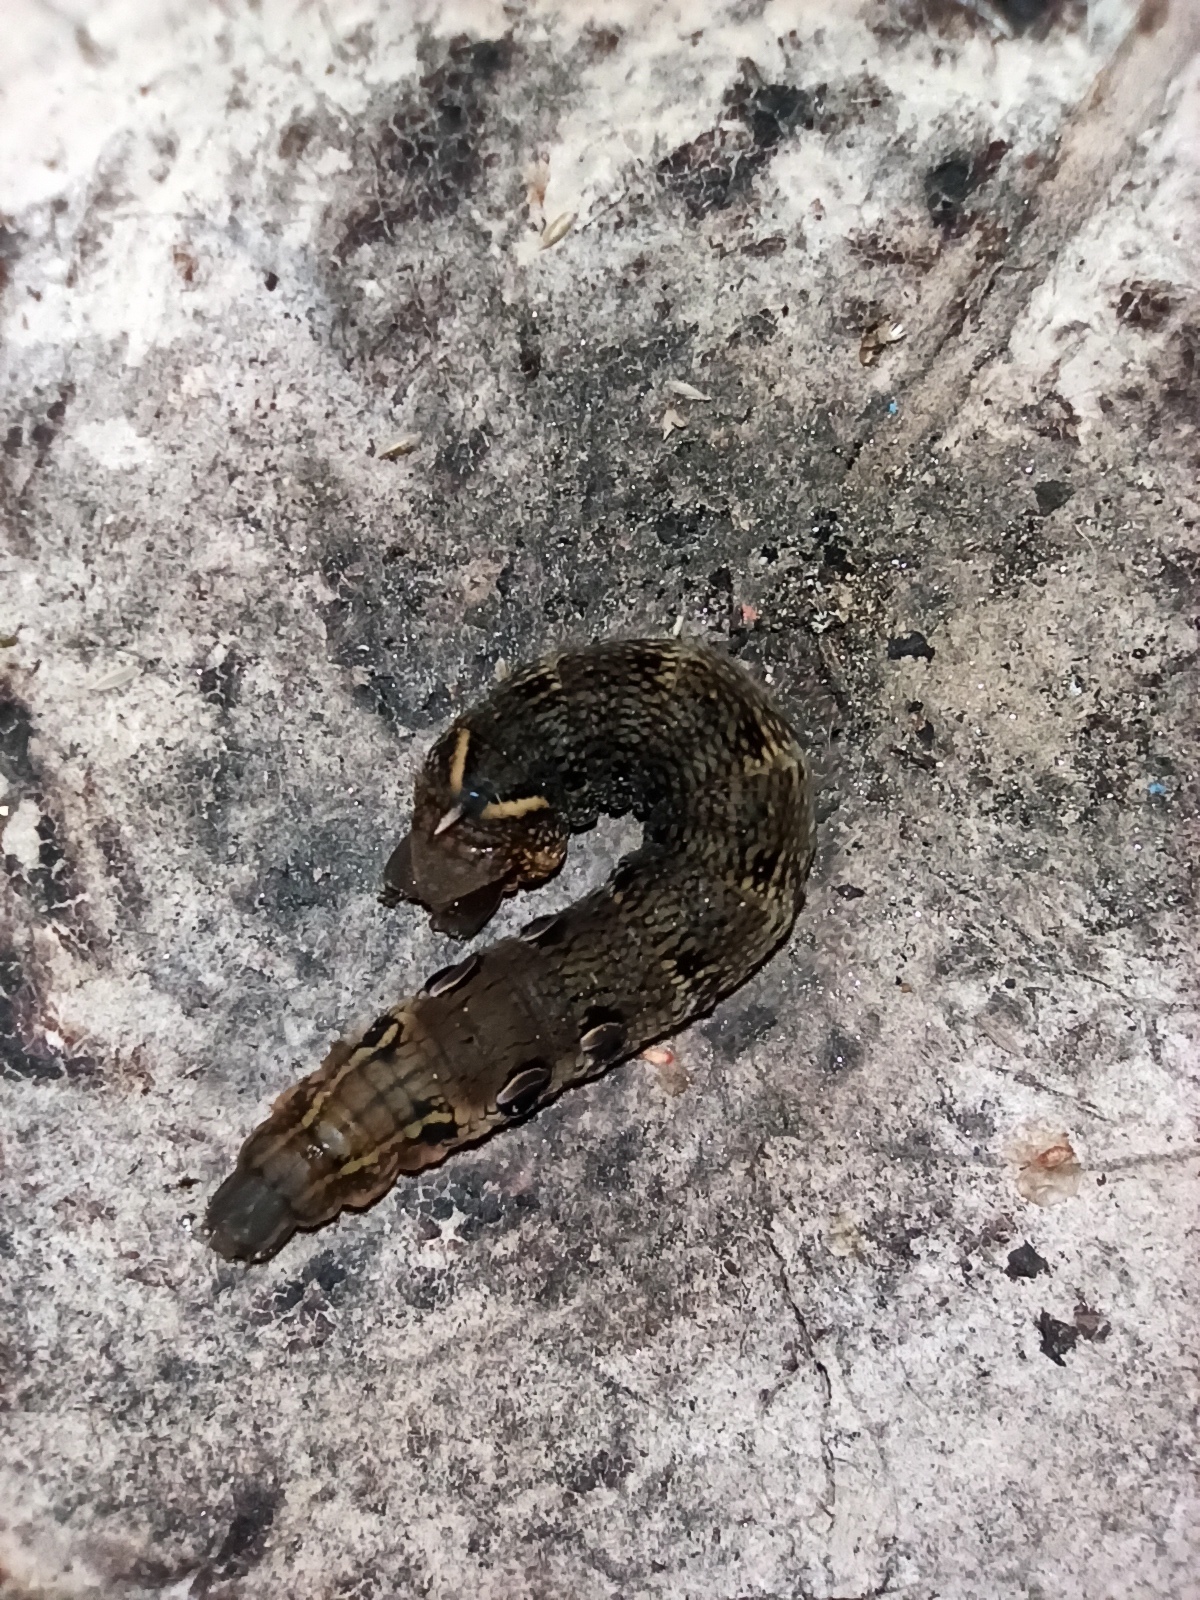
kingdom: Animalia
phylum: Arthropoda
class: Insecta
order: Lepidoptera
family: Sphingidae
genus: Deilephila
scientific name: Deilephila elpenor
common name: Elephant hawk-moth
